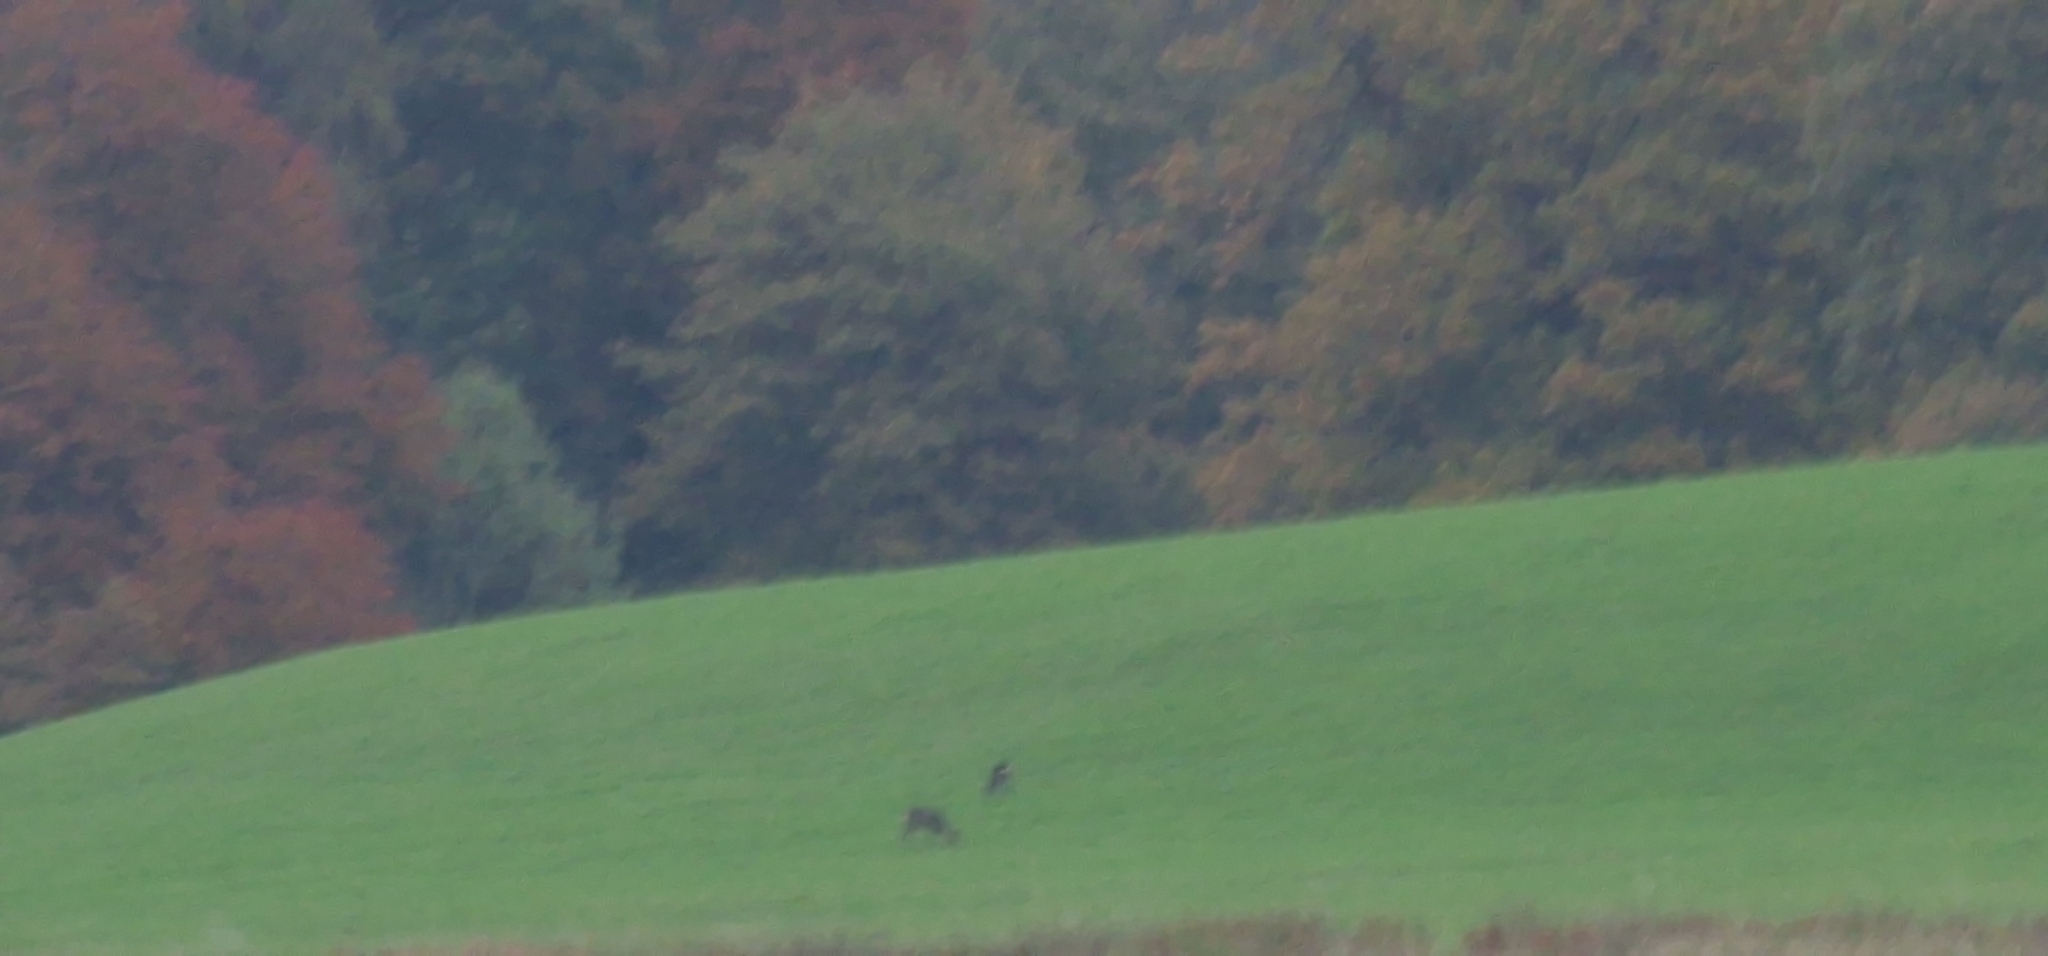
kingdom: Animalia
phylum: Chordata
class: Mammalia
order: Artiodactyla
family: Cervidae
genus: Capreolus
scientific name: Capreolus capreolus
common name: Western roe deer
